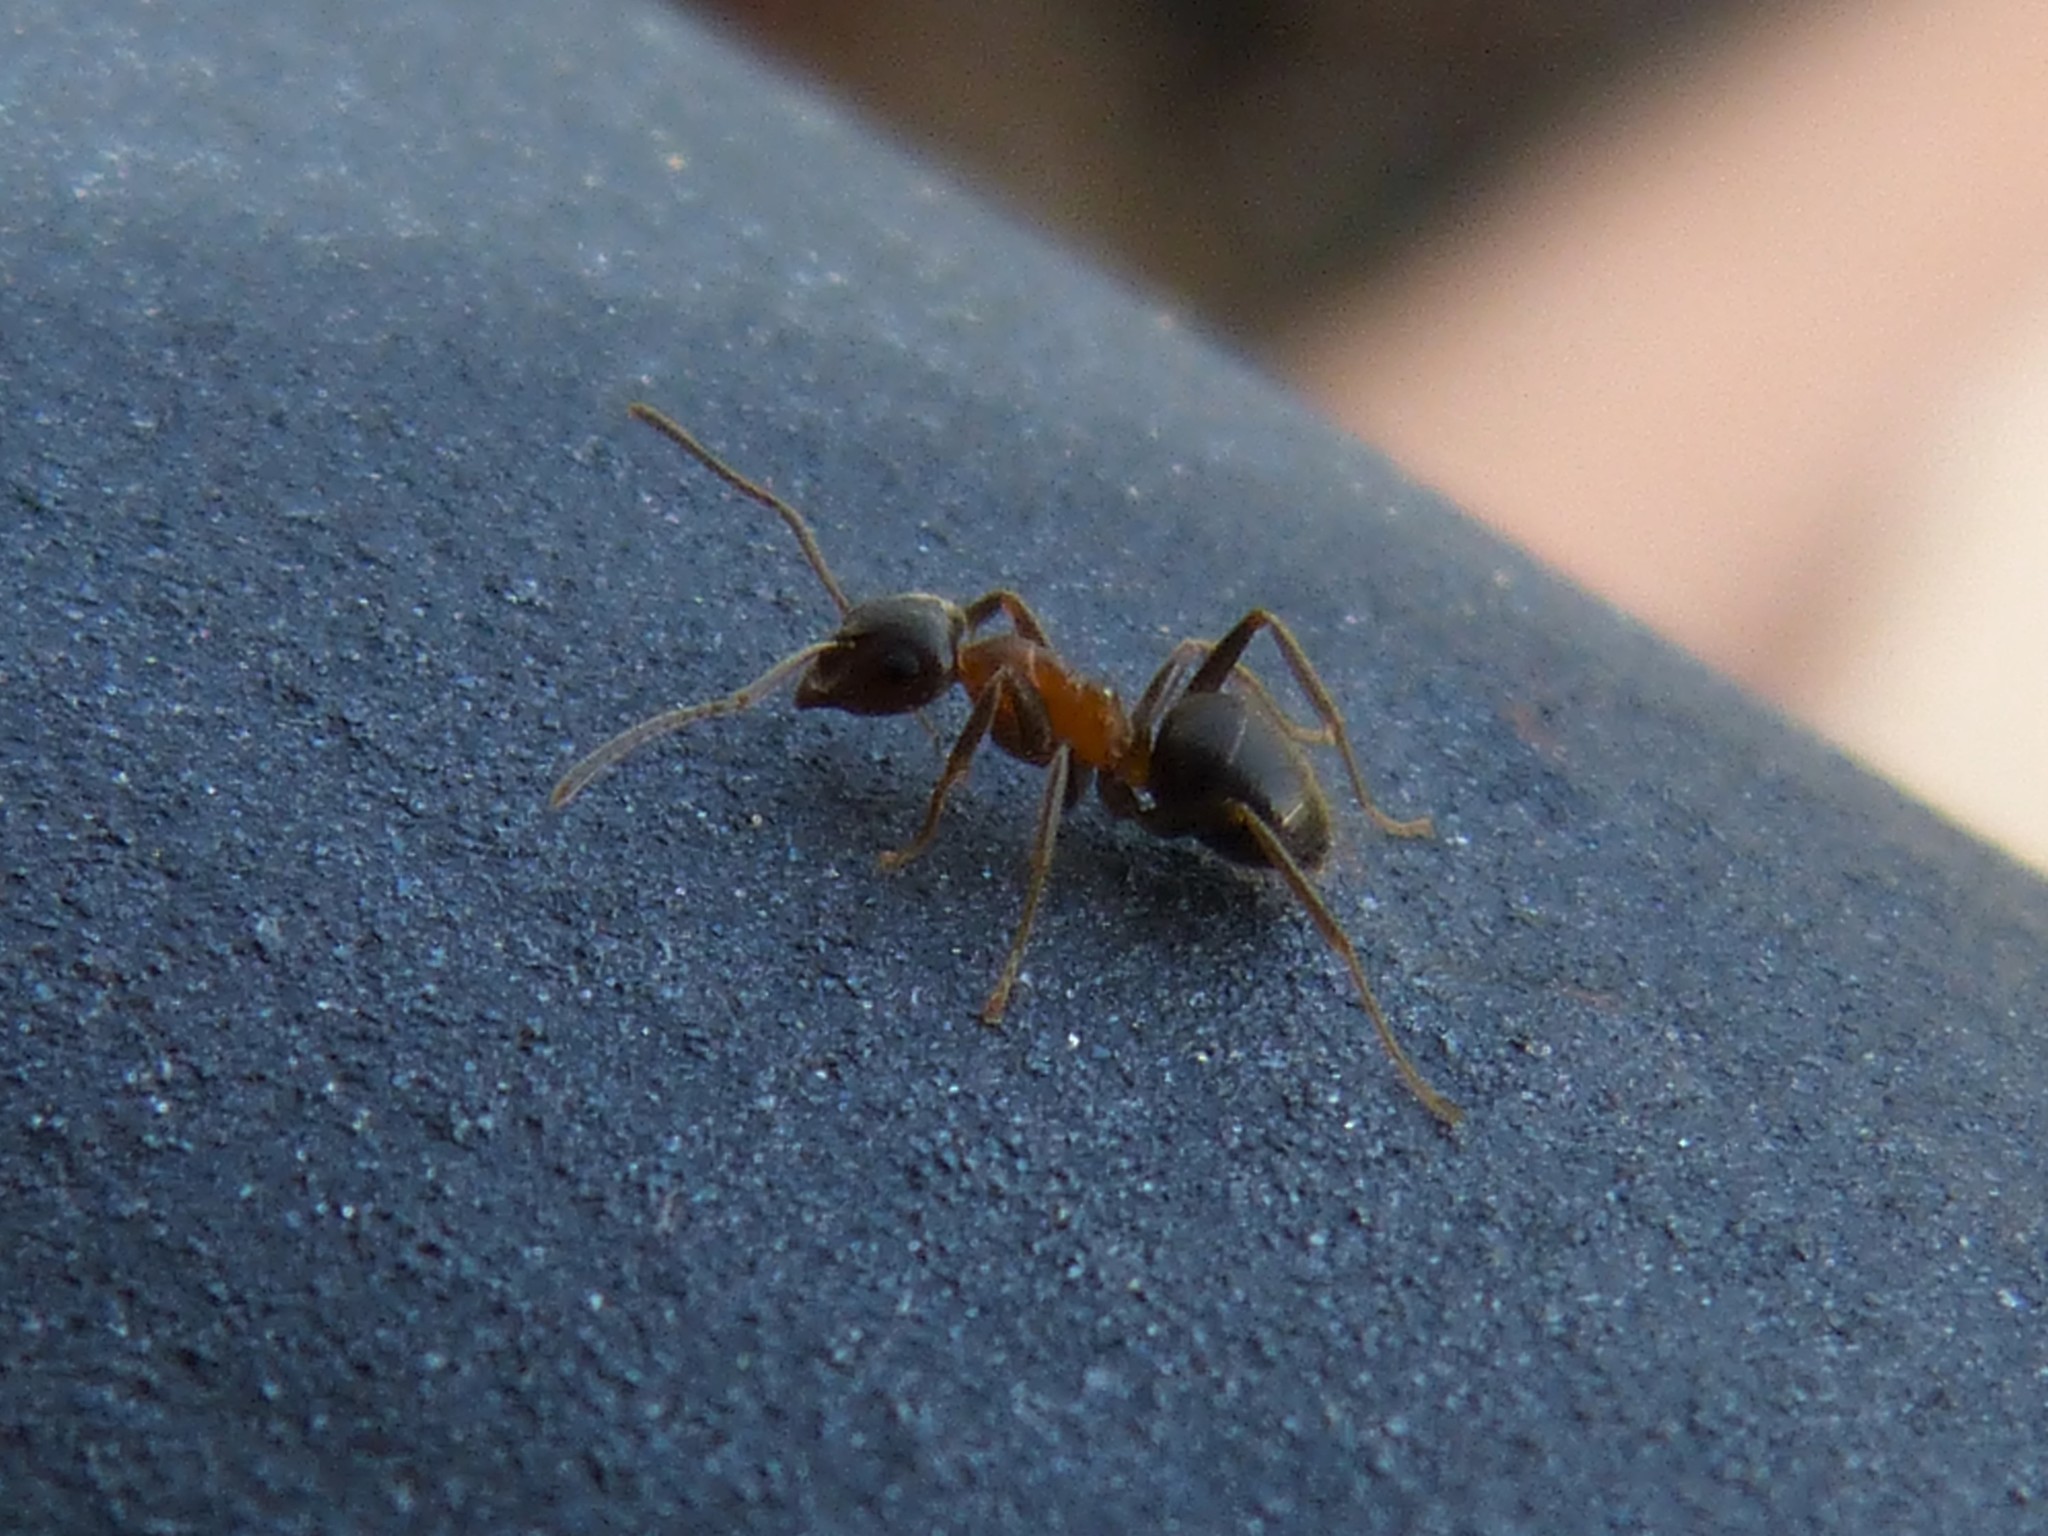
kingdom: Animalia
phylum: Arthropoda
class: Insecta
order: Hymenoptera
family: Formicidae
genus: Lasius
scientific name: Lasius emarginatus
